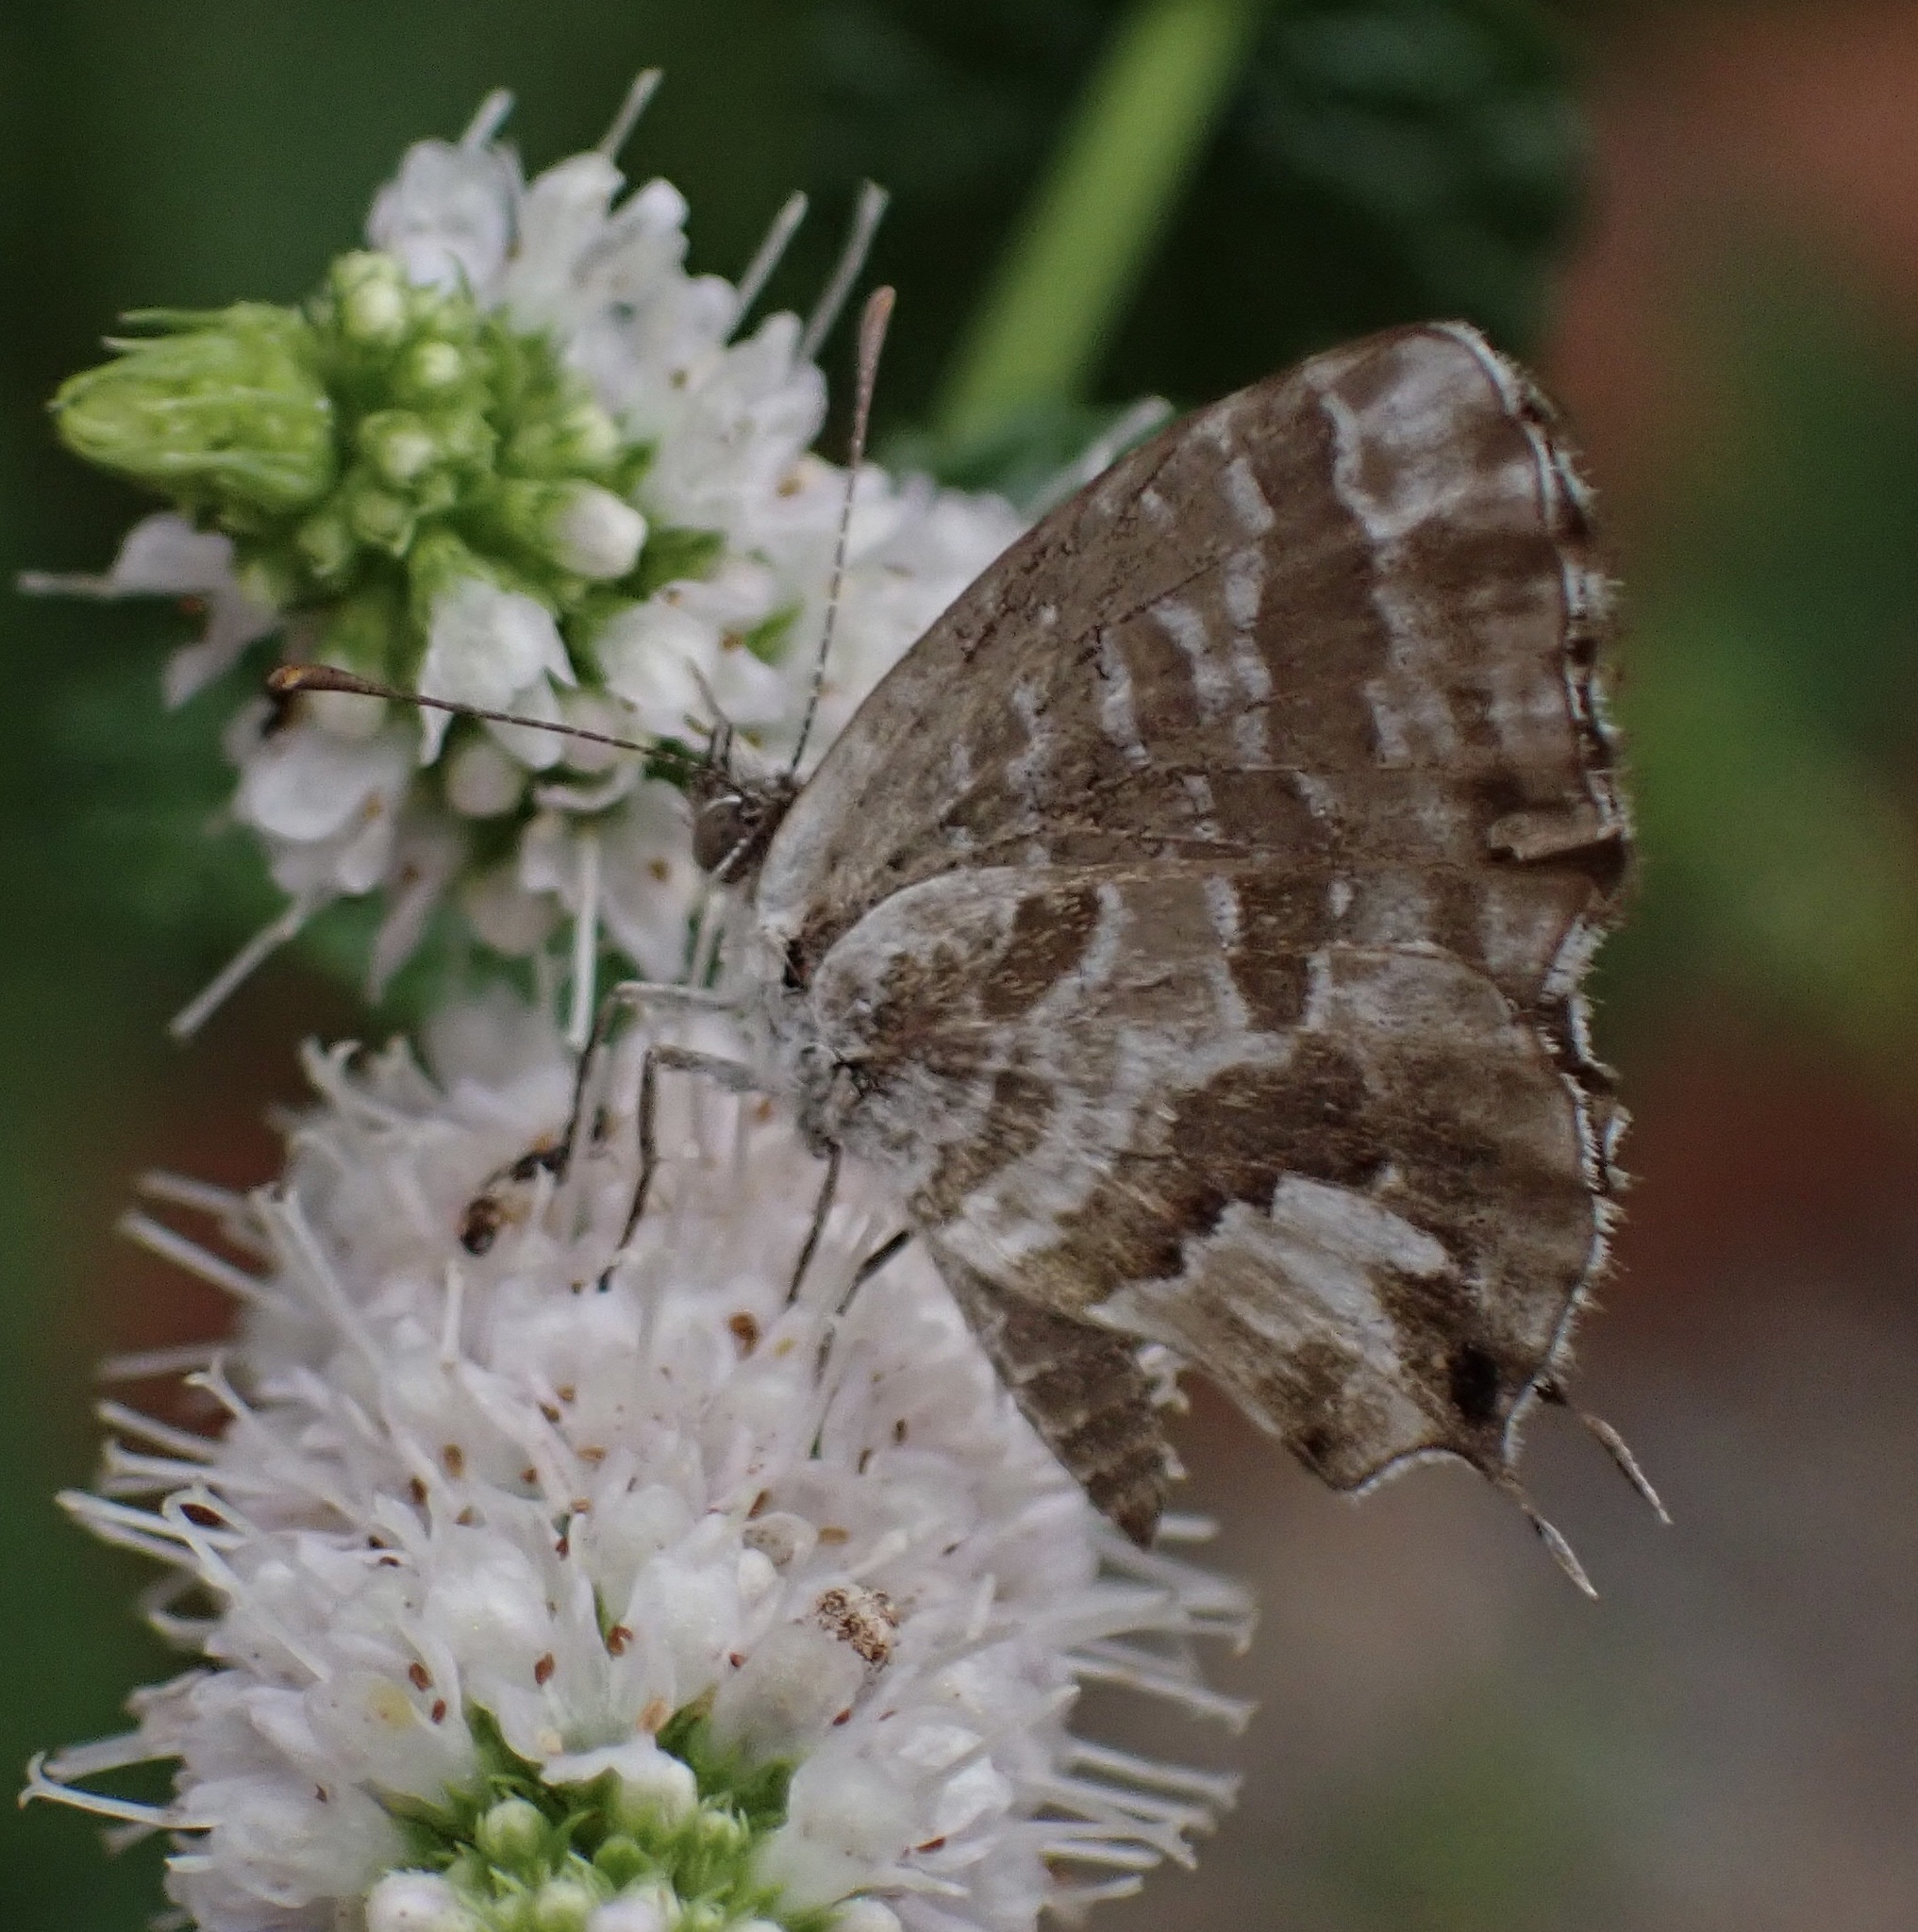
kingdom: Animalia
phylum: Arthropoda
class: Insecta
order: Lepidoptera
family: Lycaenidae
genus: Cacyreus
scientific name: Cacyreus marshalli
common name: Geranium bronze
